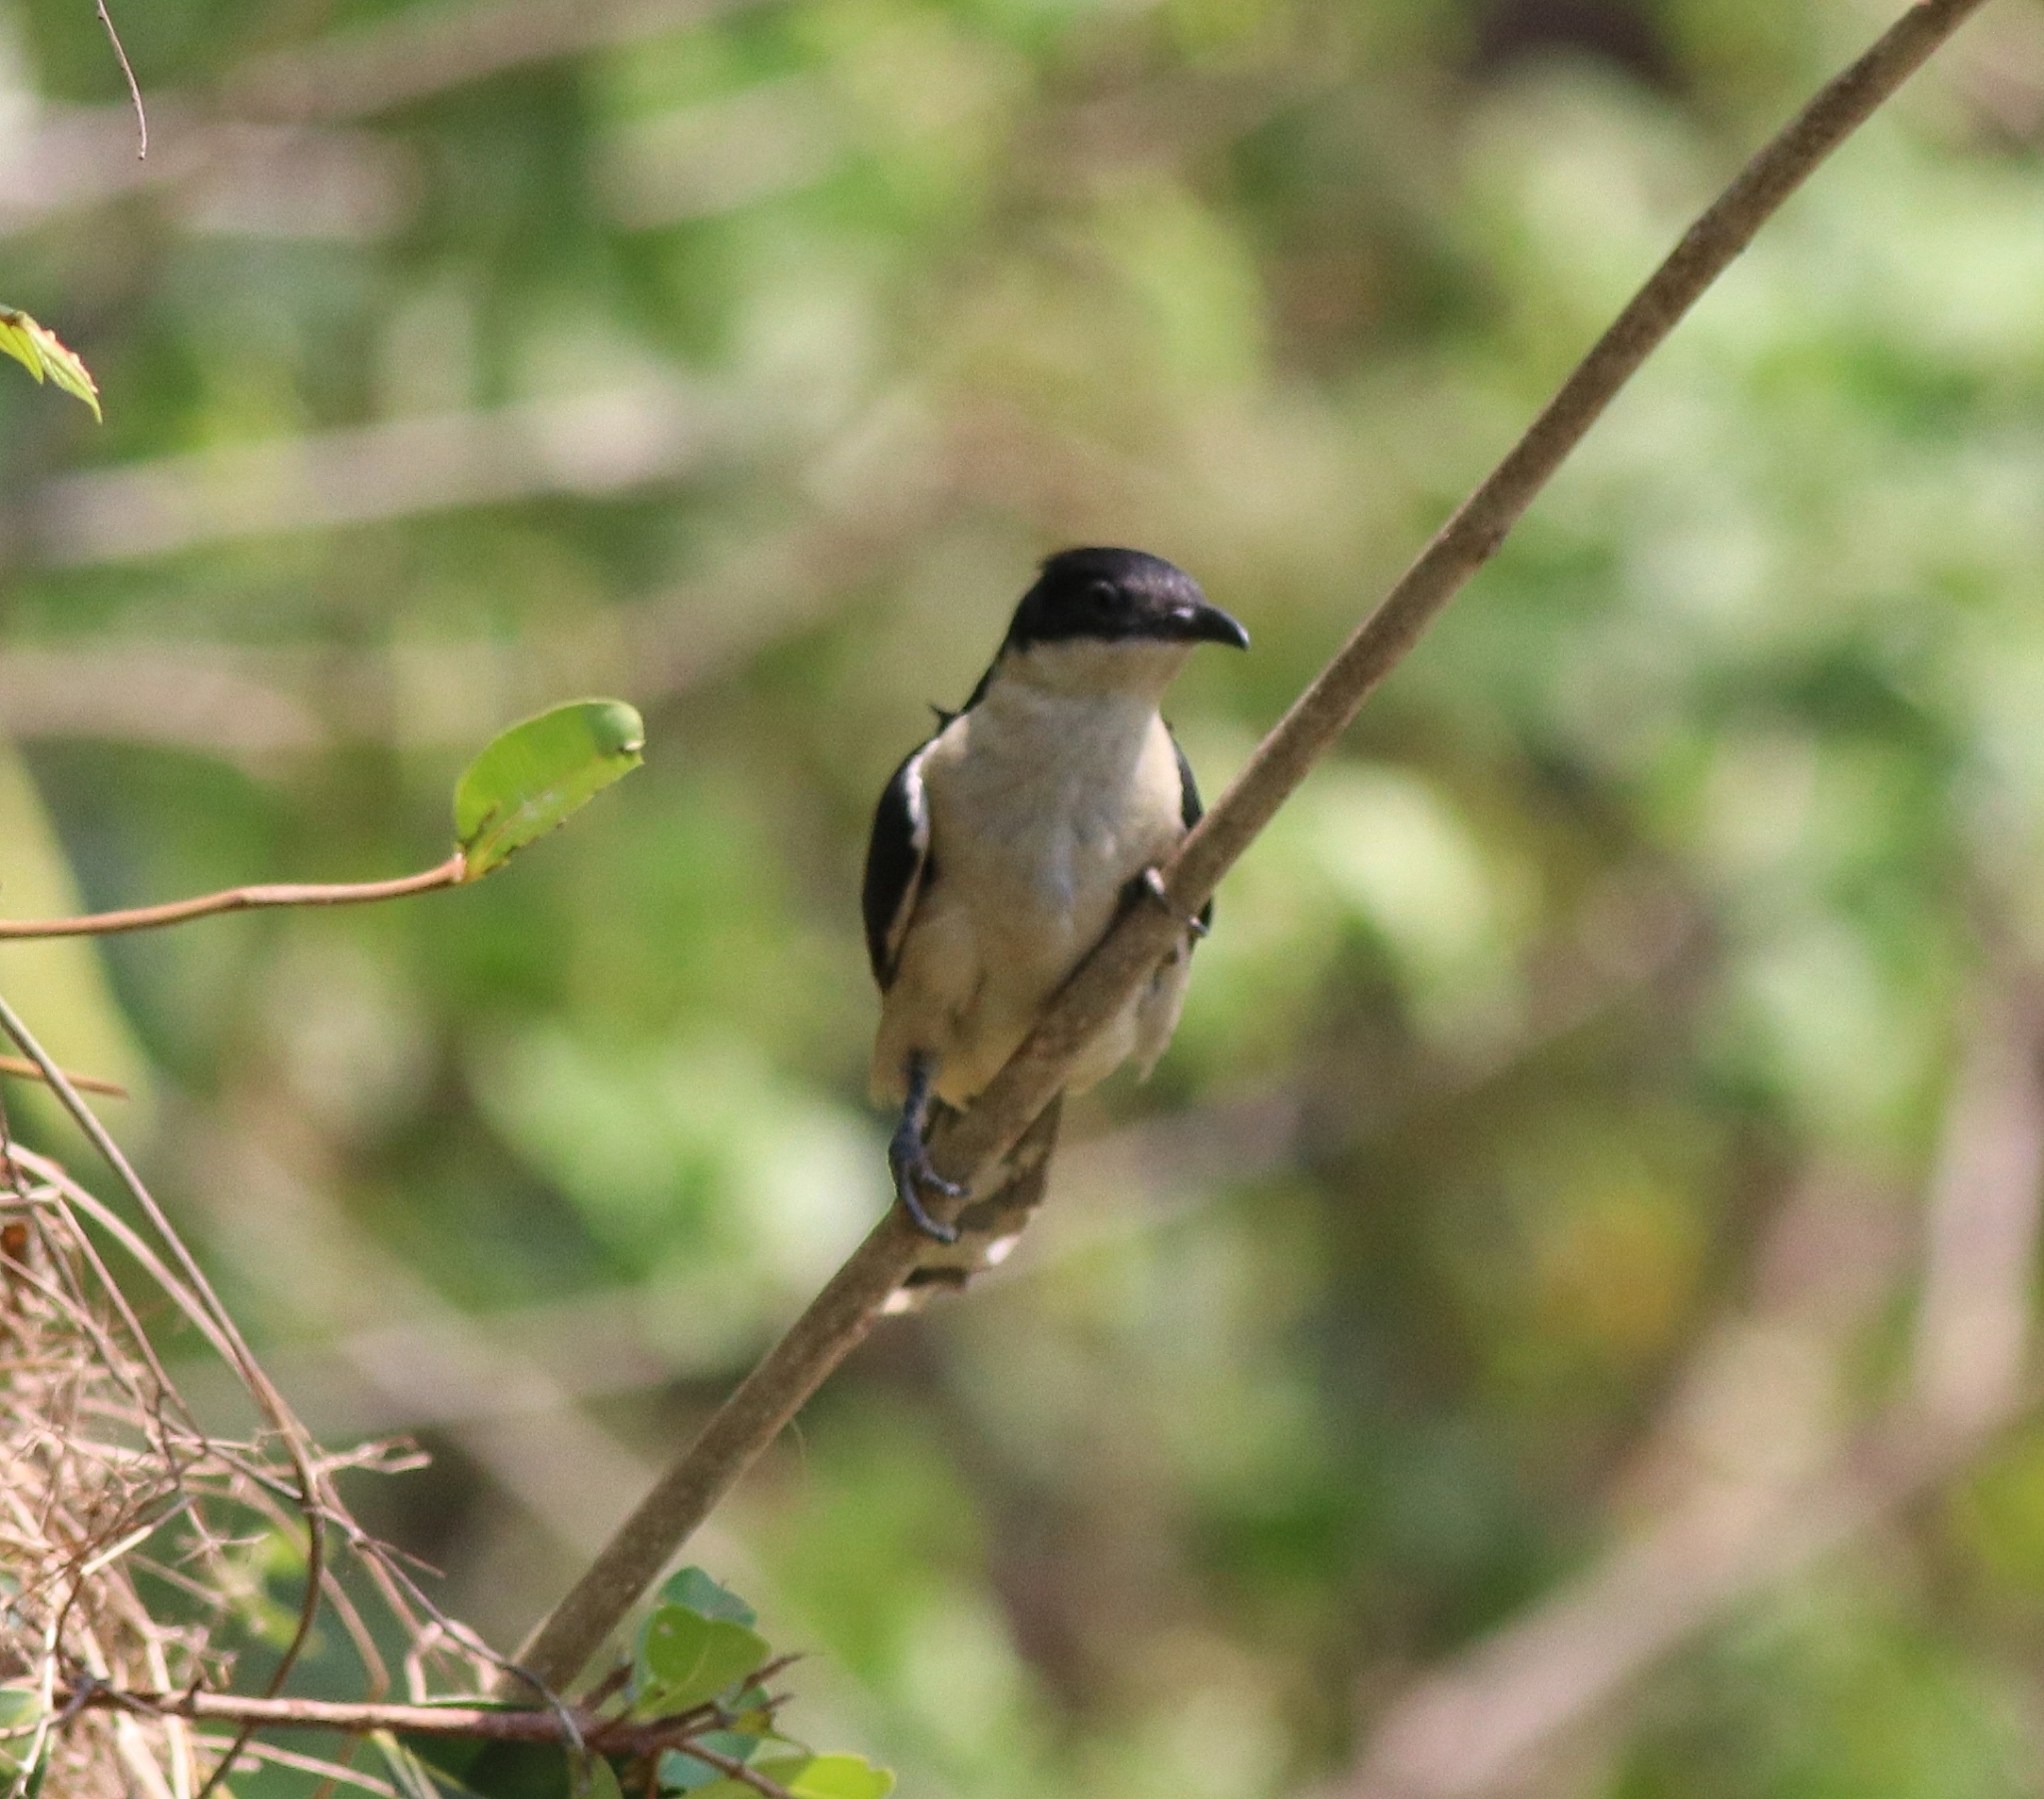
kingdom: Animalia
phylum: Chordata
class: Aves
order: Cuculiformes
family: Cuculidae
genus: Clamator
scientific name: Clamator jacobinus
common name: Jacobin cuckoo
